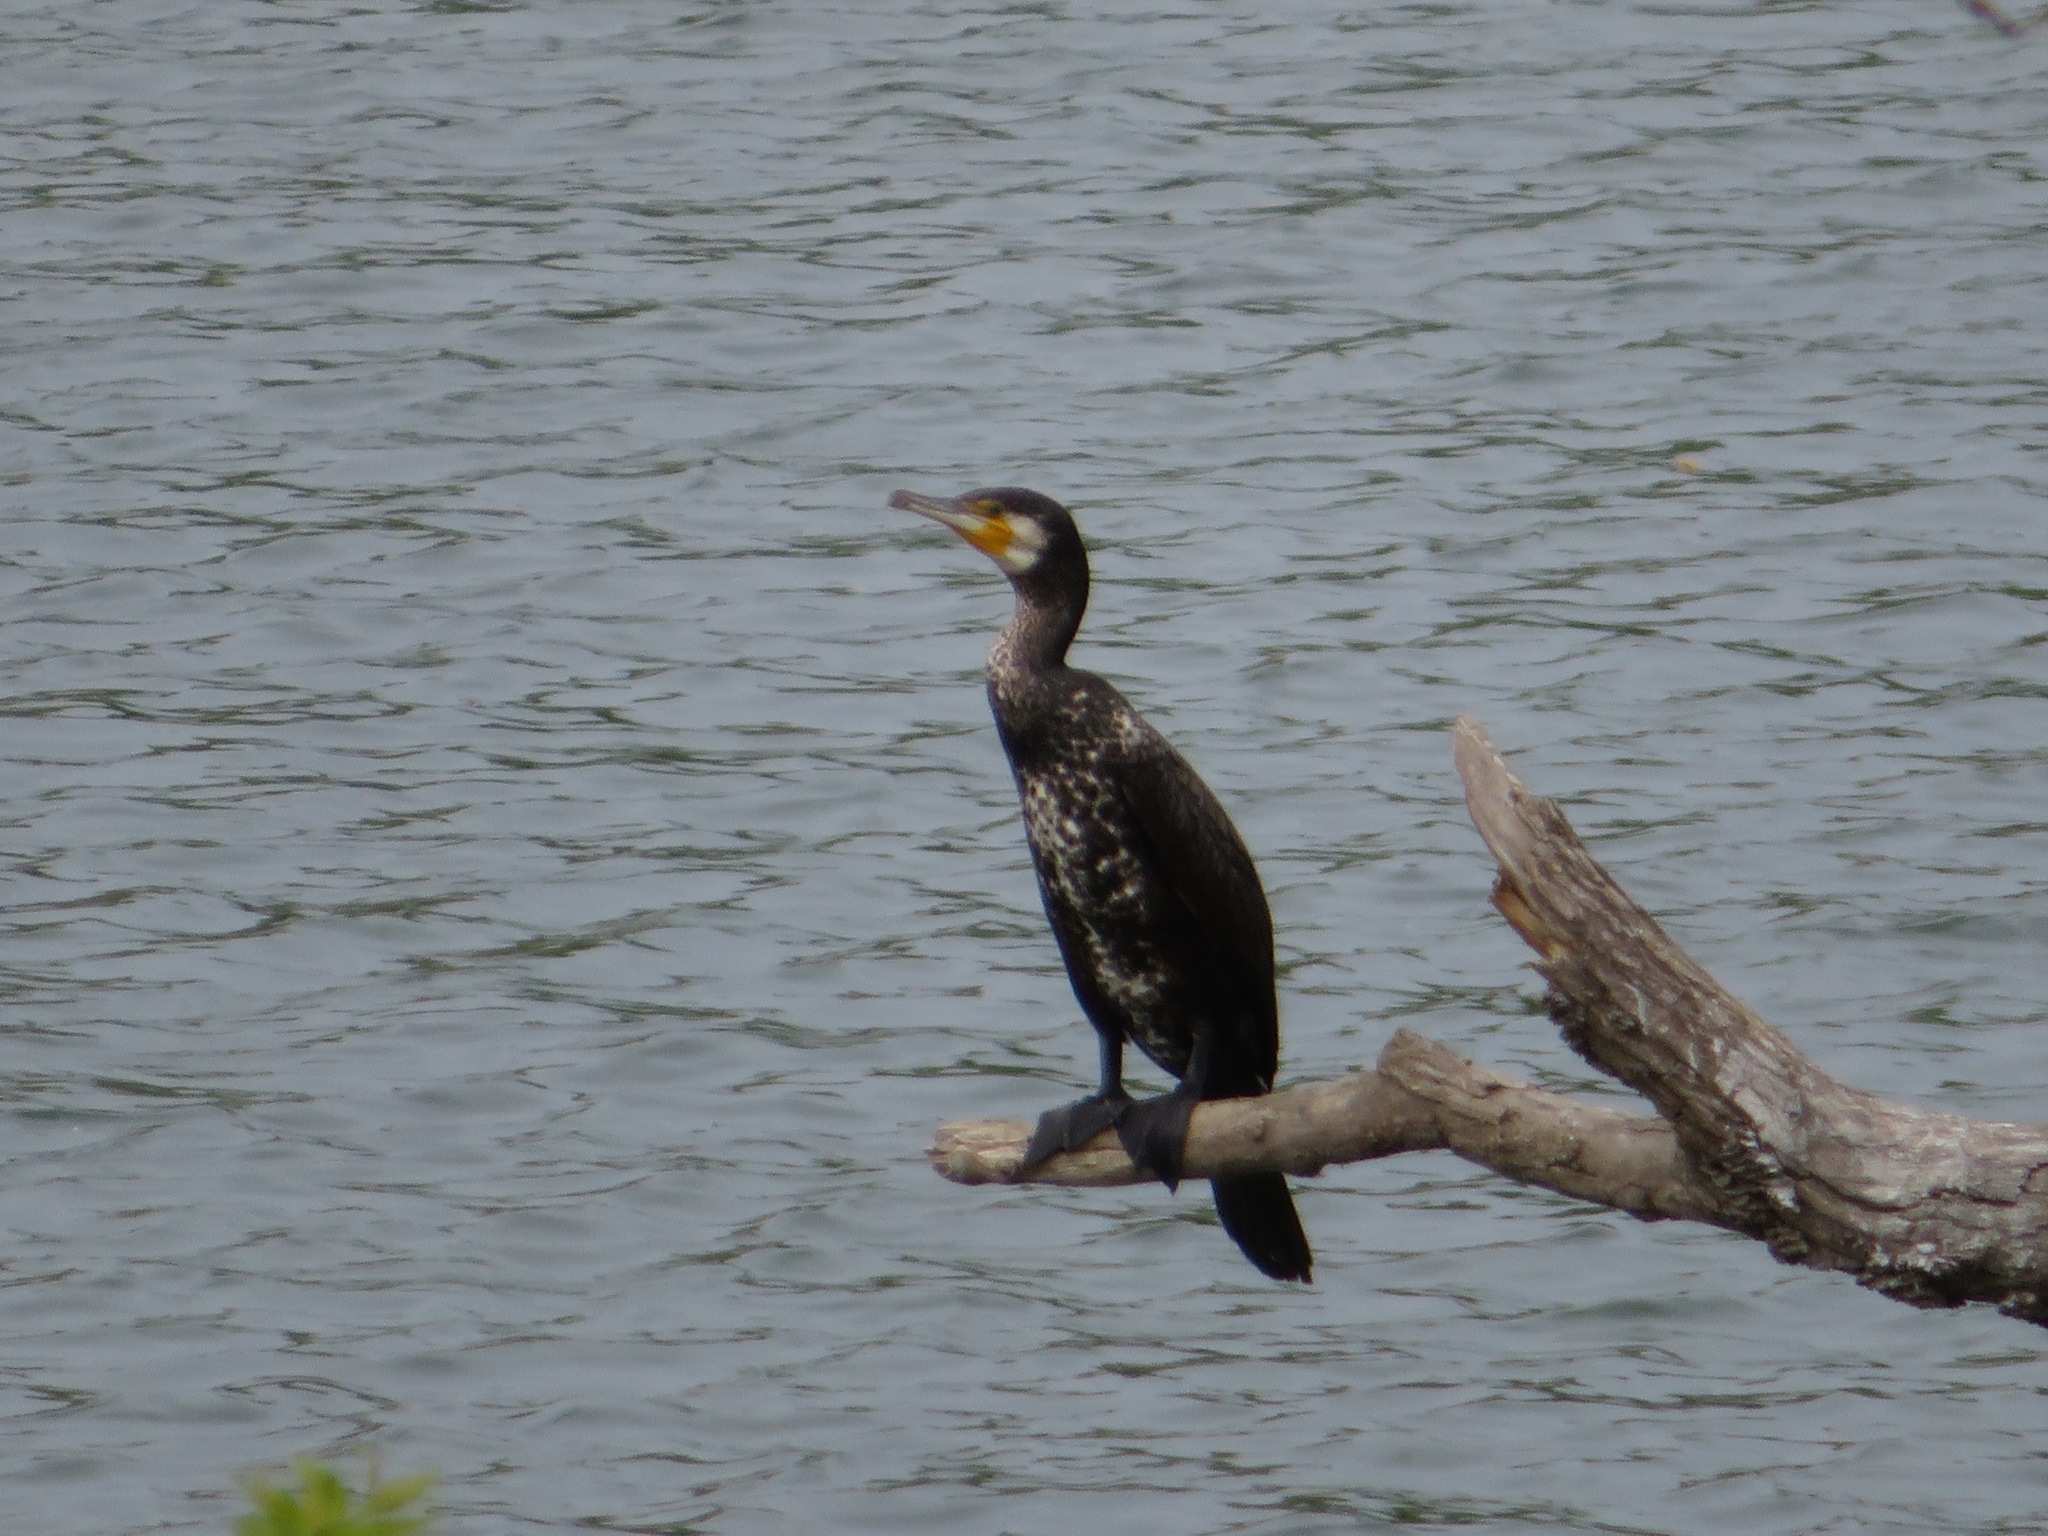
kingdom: Animalia
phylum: Chordata
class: Aves
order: Suliformes
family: Phalacrocoracidae
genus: Phalacrocorax
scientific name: Phalacrocorax carbo
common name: Great cormorant
